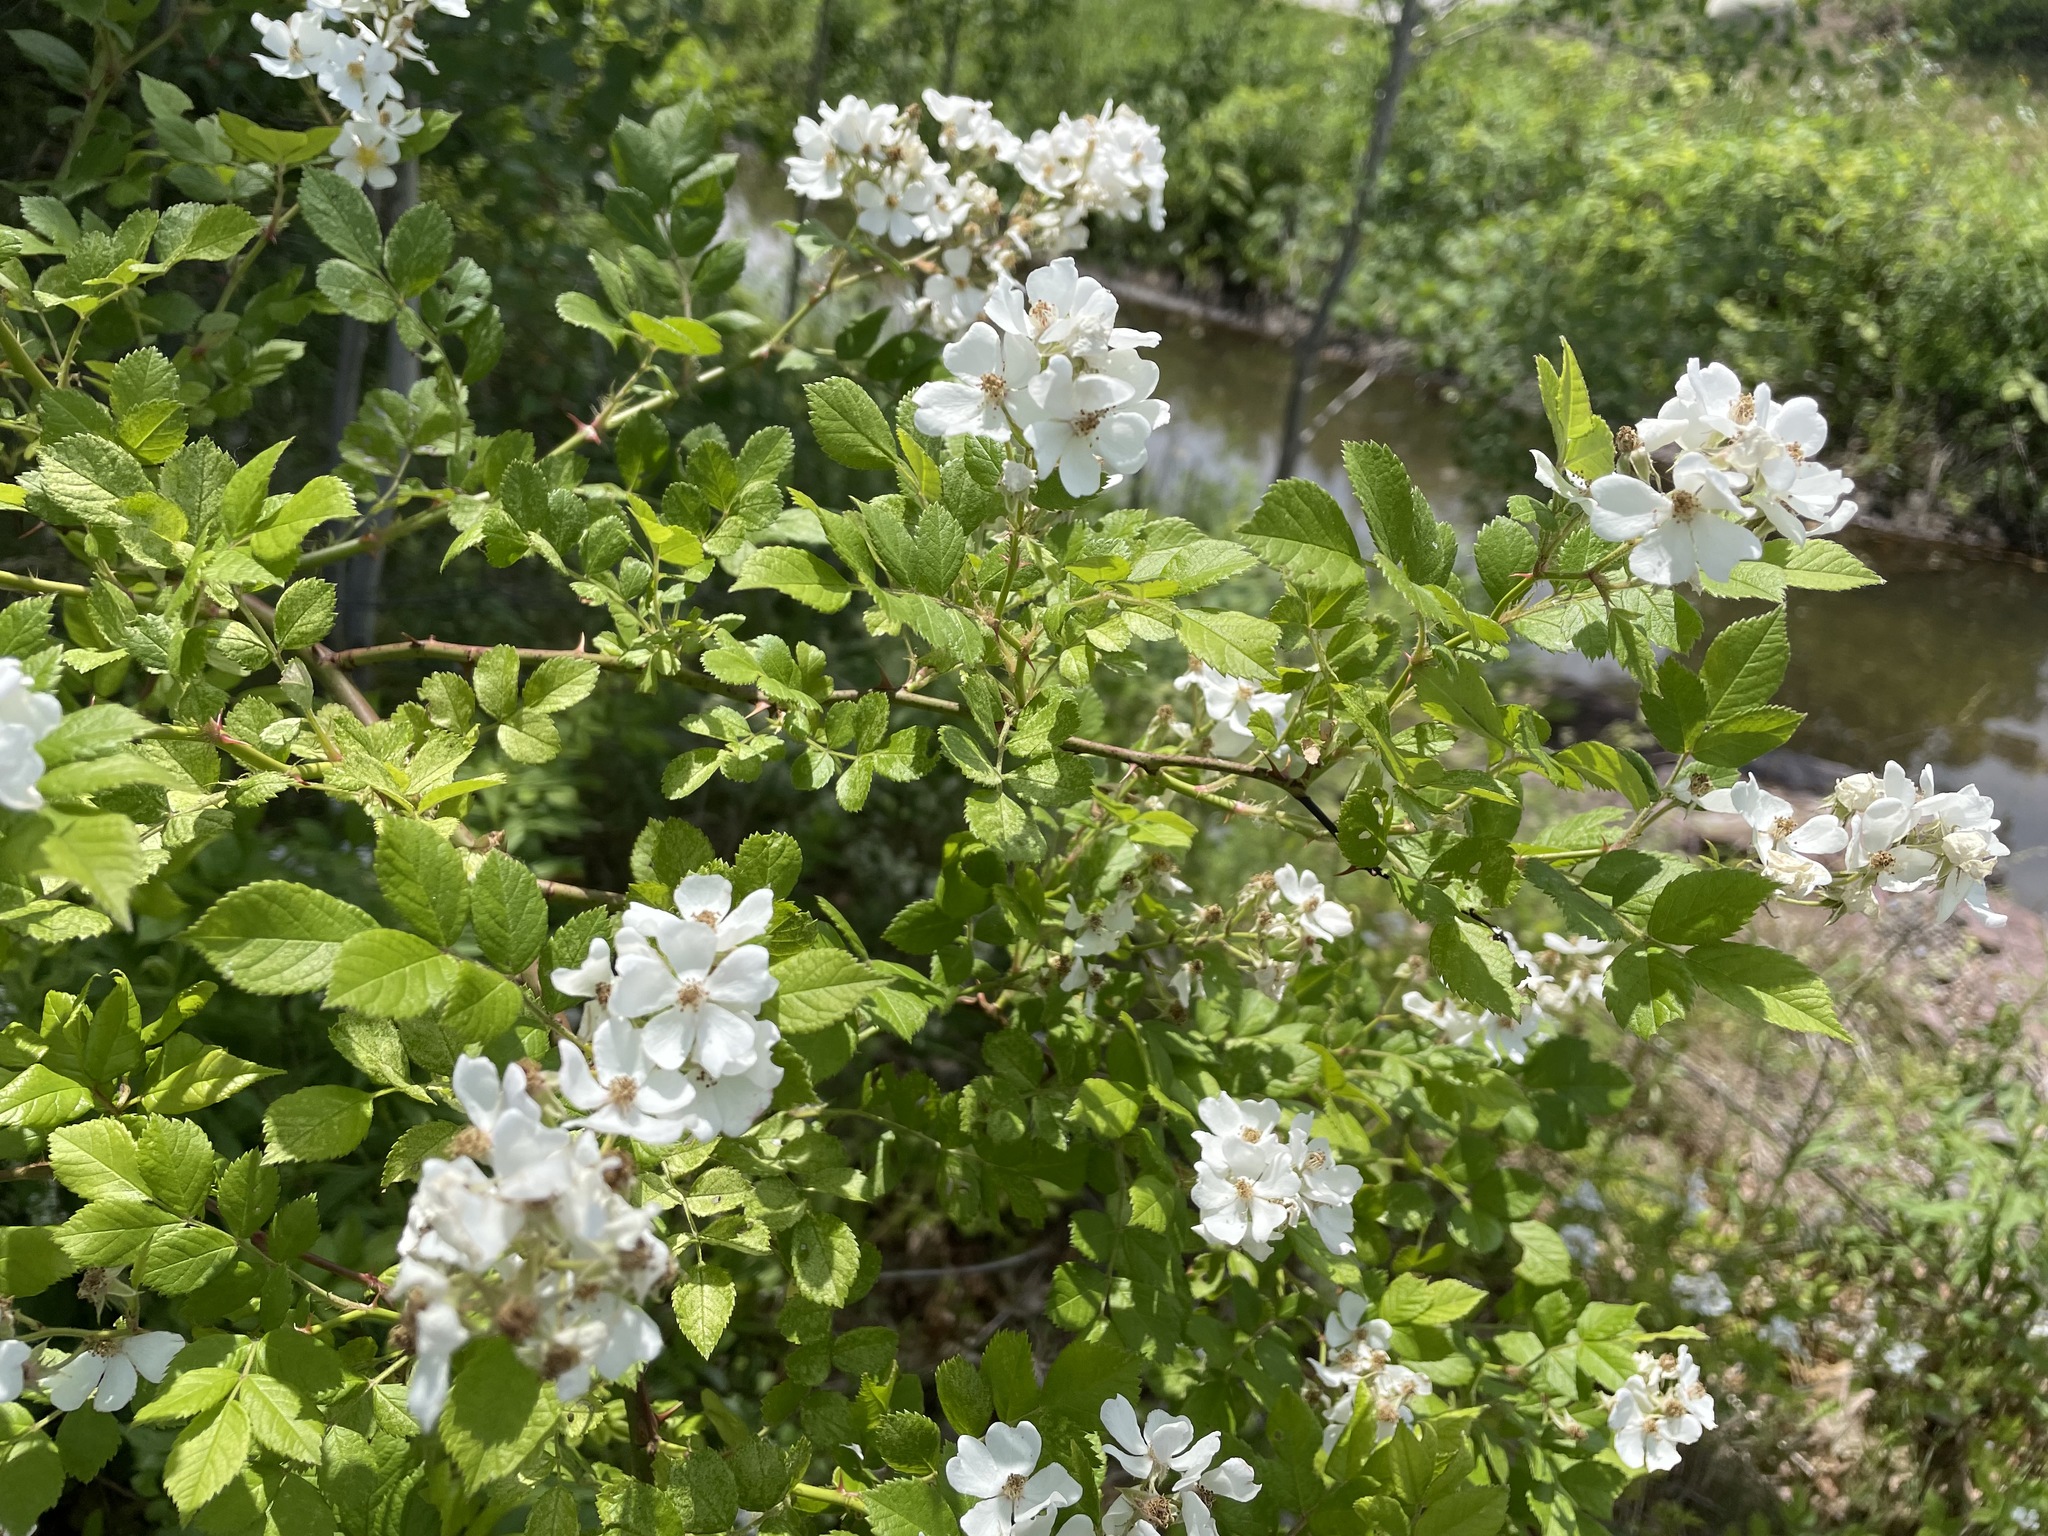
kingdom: Plantae
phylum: Tracheophyta
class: Magnoliopsida
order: Rosales
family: Rosaceae
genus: Rosa
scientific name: Rosa multiflora
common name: Multiflora rose
